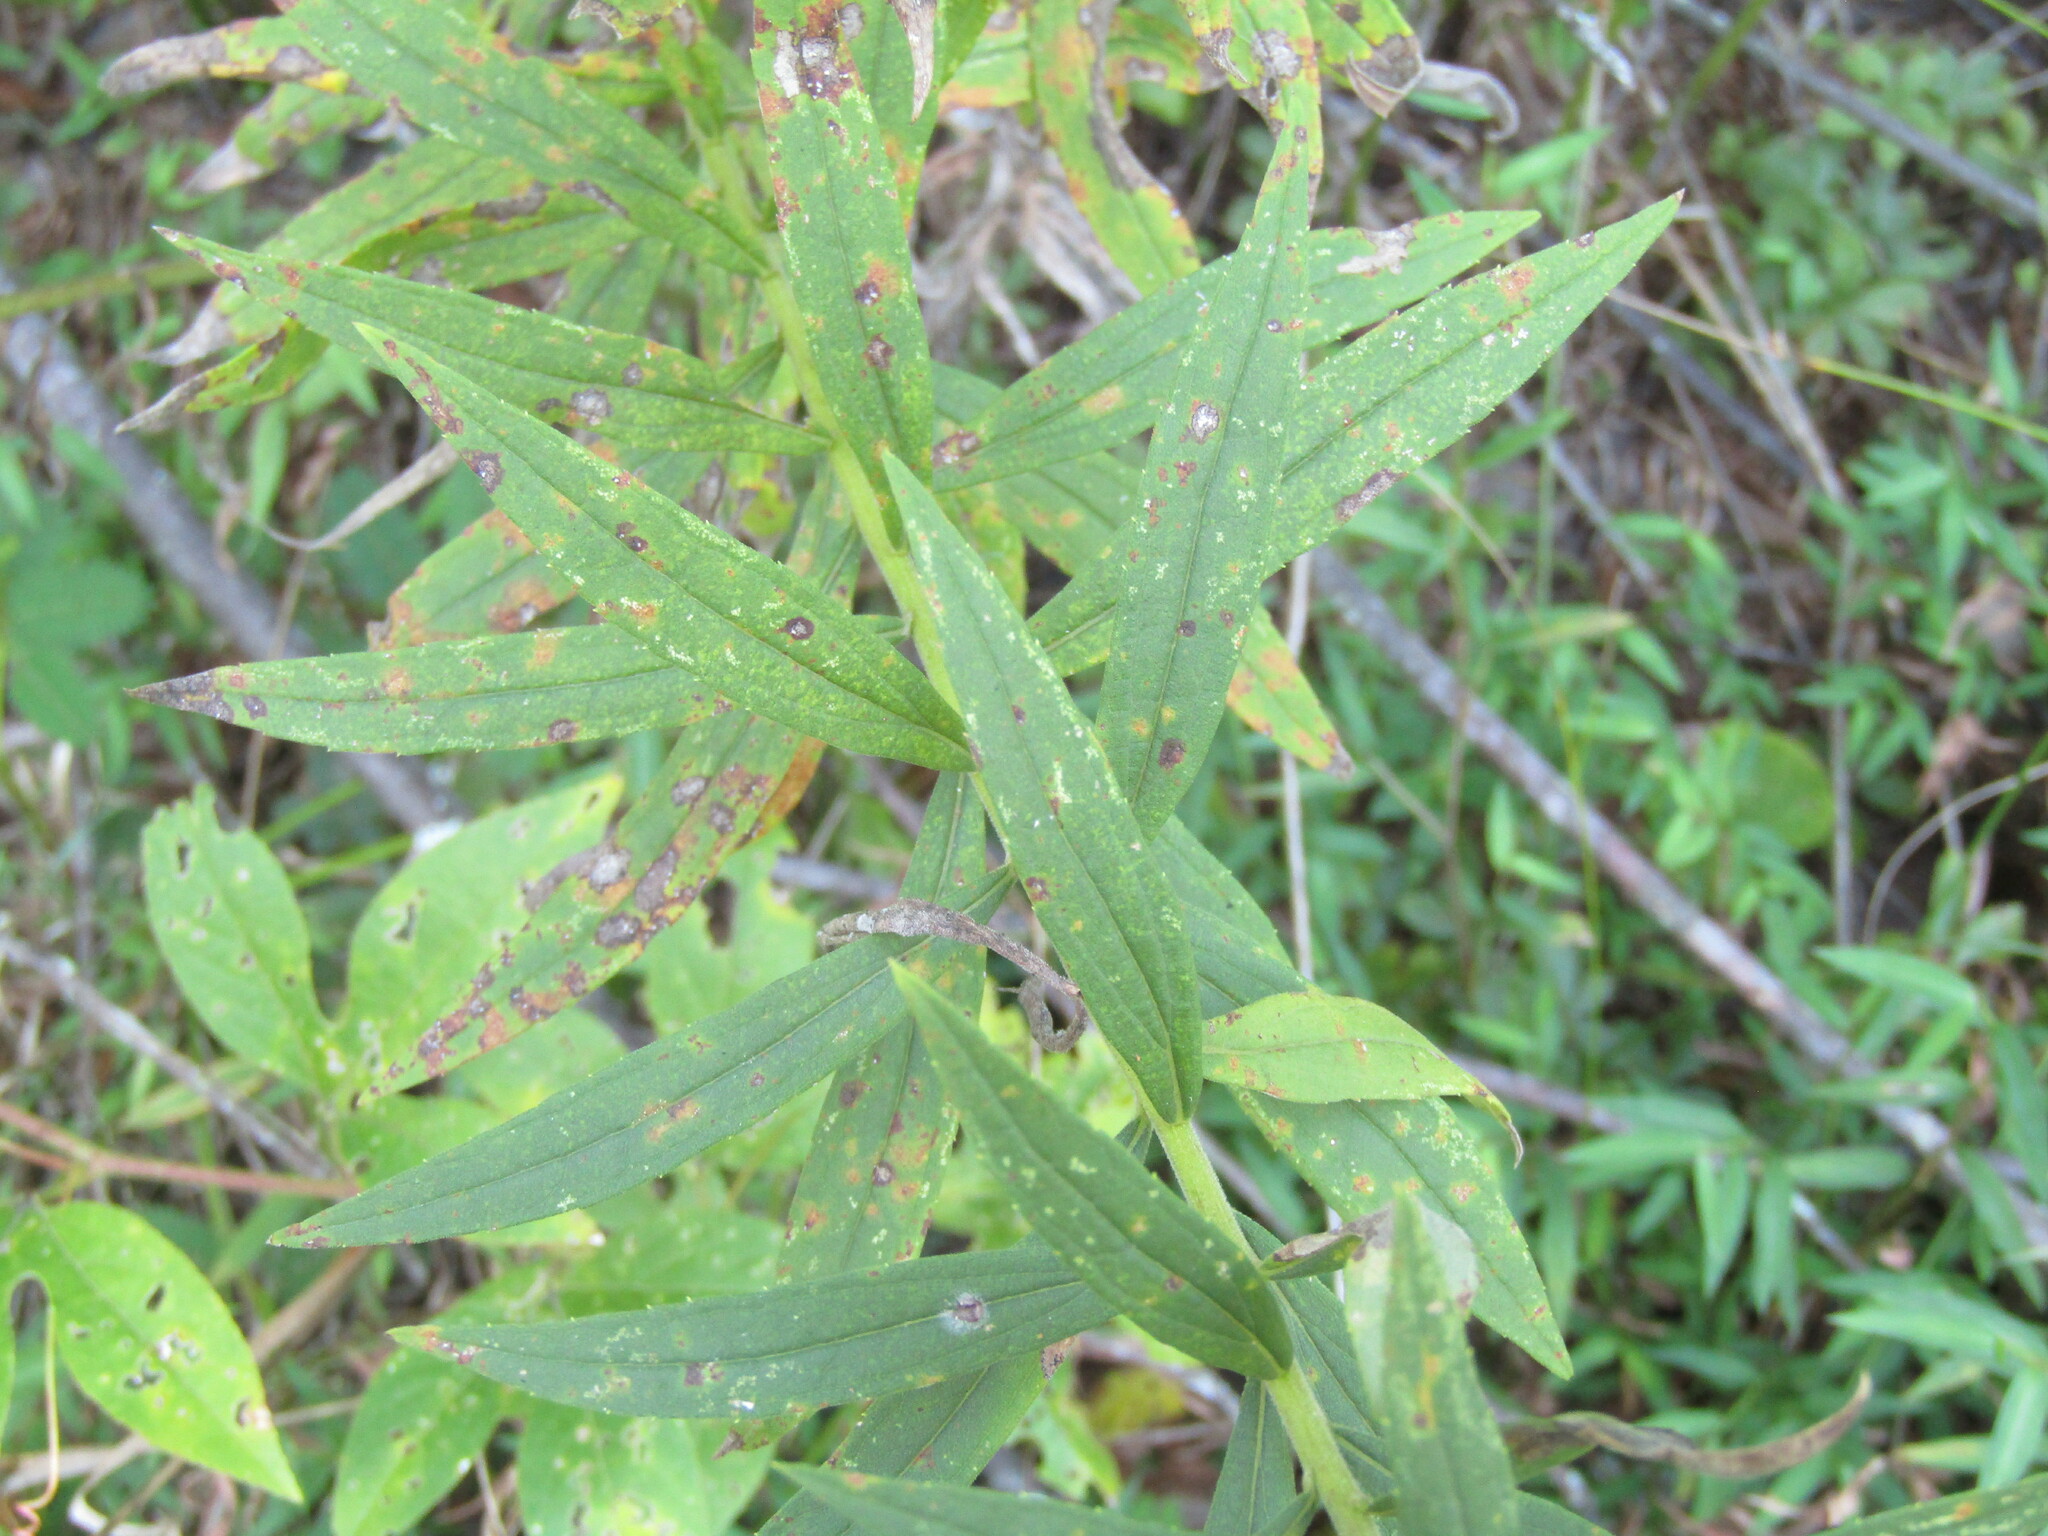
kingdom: Plantae
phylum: Tracheophyta
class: Magnoliopsida
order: Asterales
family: Asteraceae
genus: Solidago
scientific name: Solidago altissima
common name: Late goldenrod
